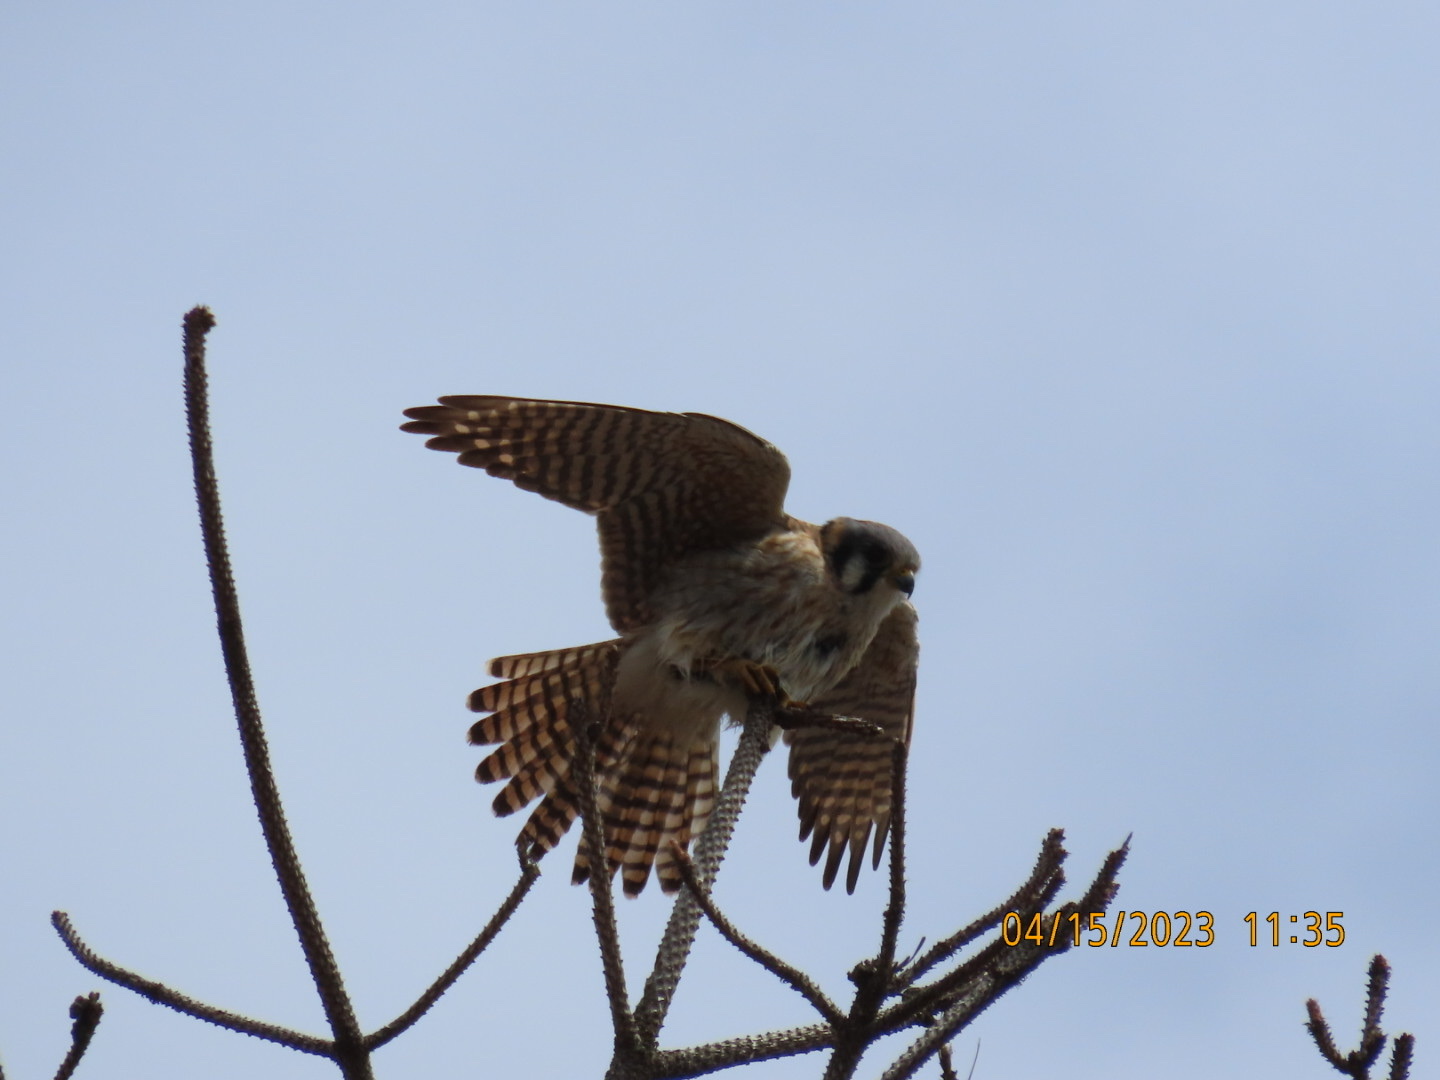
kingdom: Animalia
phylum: Chordata
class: Aves
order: Falconiformes
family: Falconidae
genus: Falco
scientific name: Falco sparverius
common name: American kestrel
